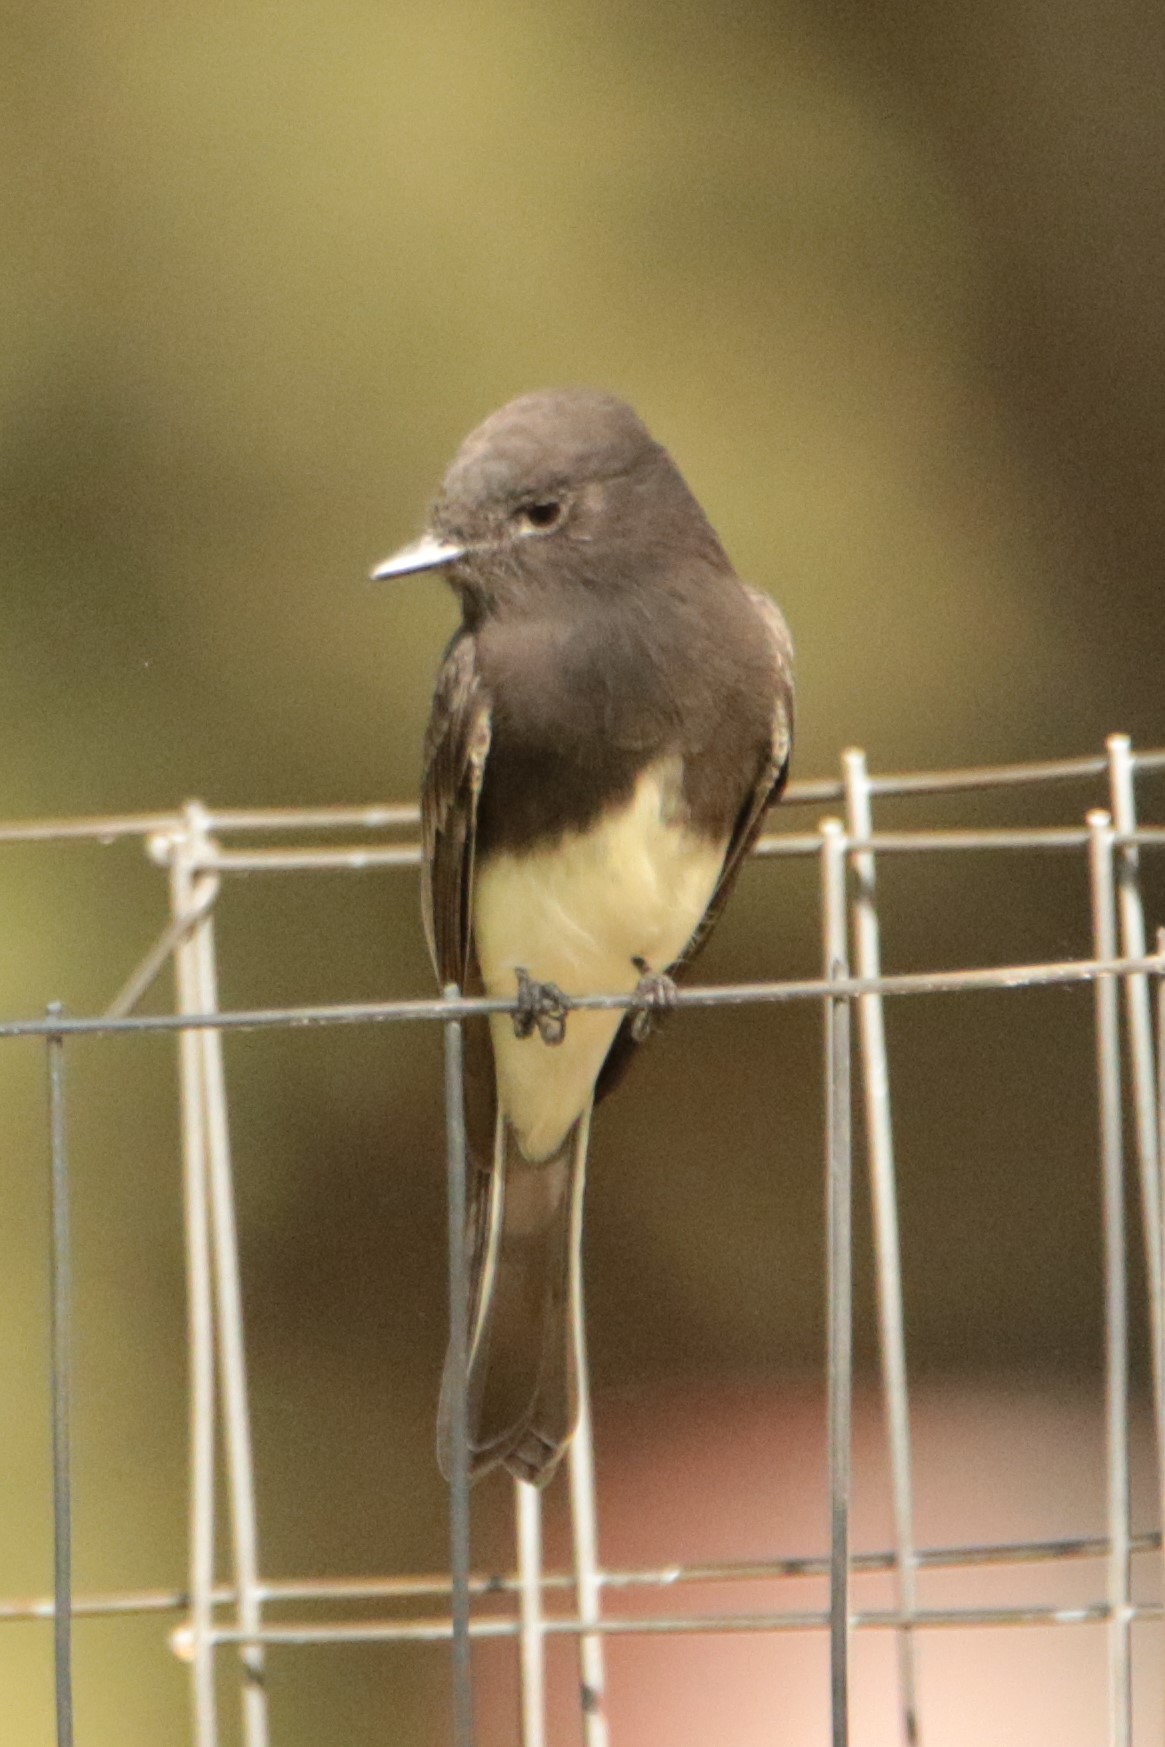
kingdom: Animalia
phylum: Chordata
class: Aves
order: Passeriformes
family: Tyrannidae
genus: Sayornis
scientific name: Sayornis nigricans
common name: Black phoebe
